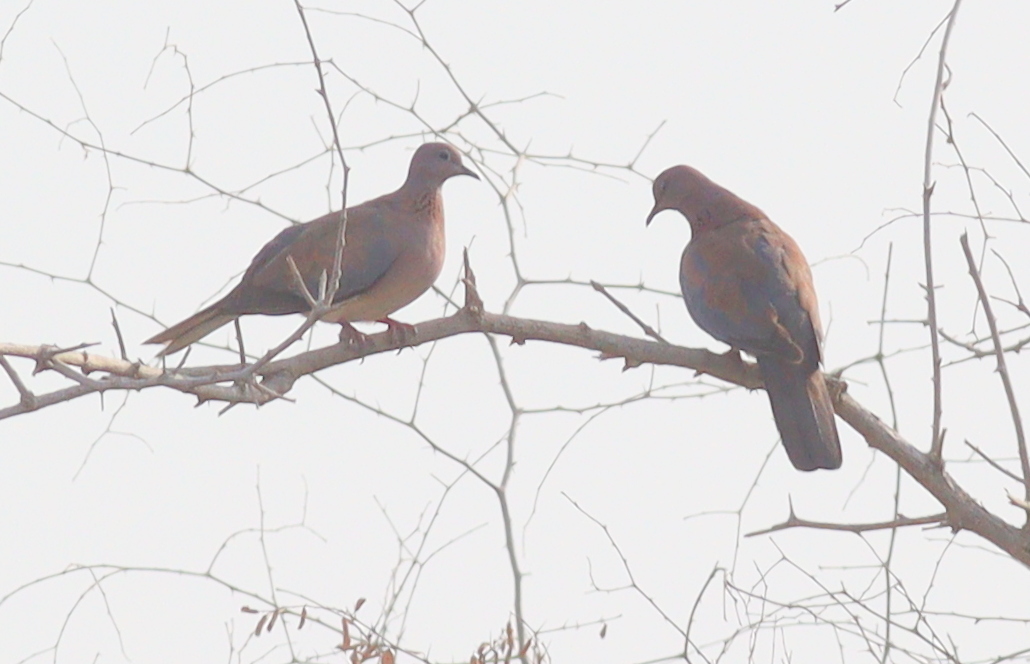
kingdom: Animalia
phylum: Chordata
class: Aves
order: Columbiformes
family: Columbidae
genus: Spilopelia
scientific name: Spilopelia senegalensis
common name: Laughing dove
